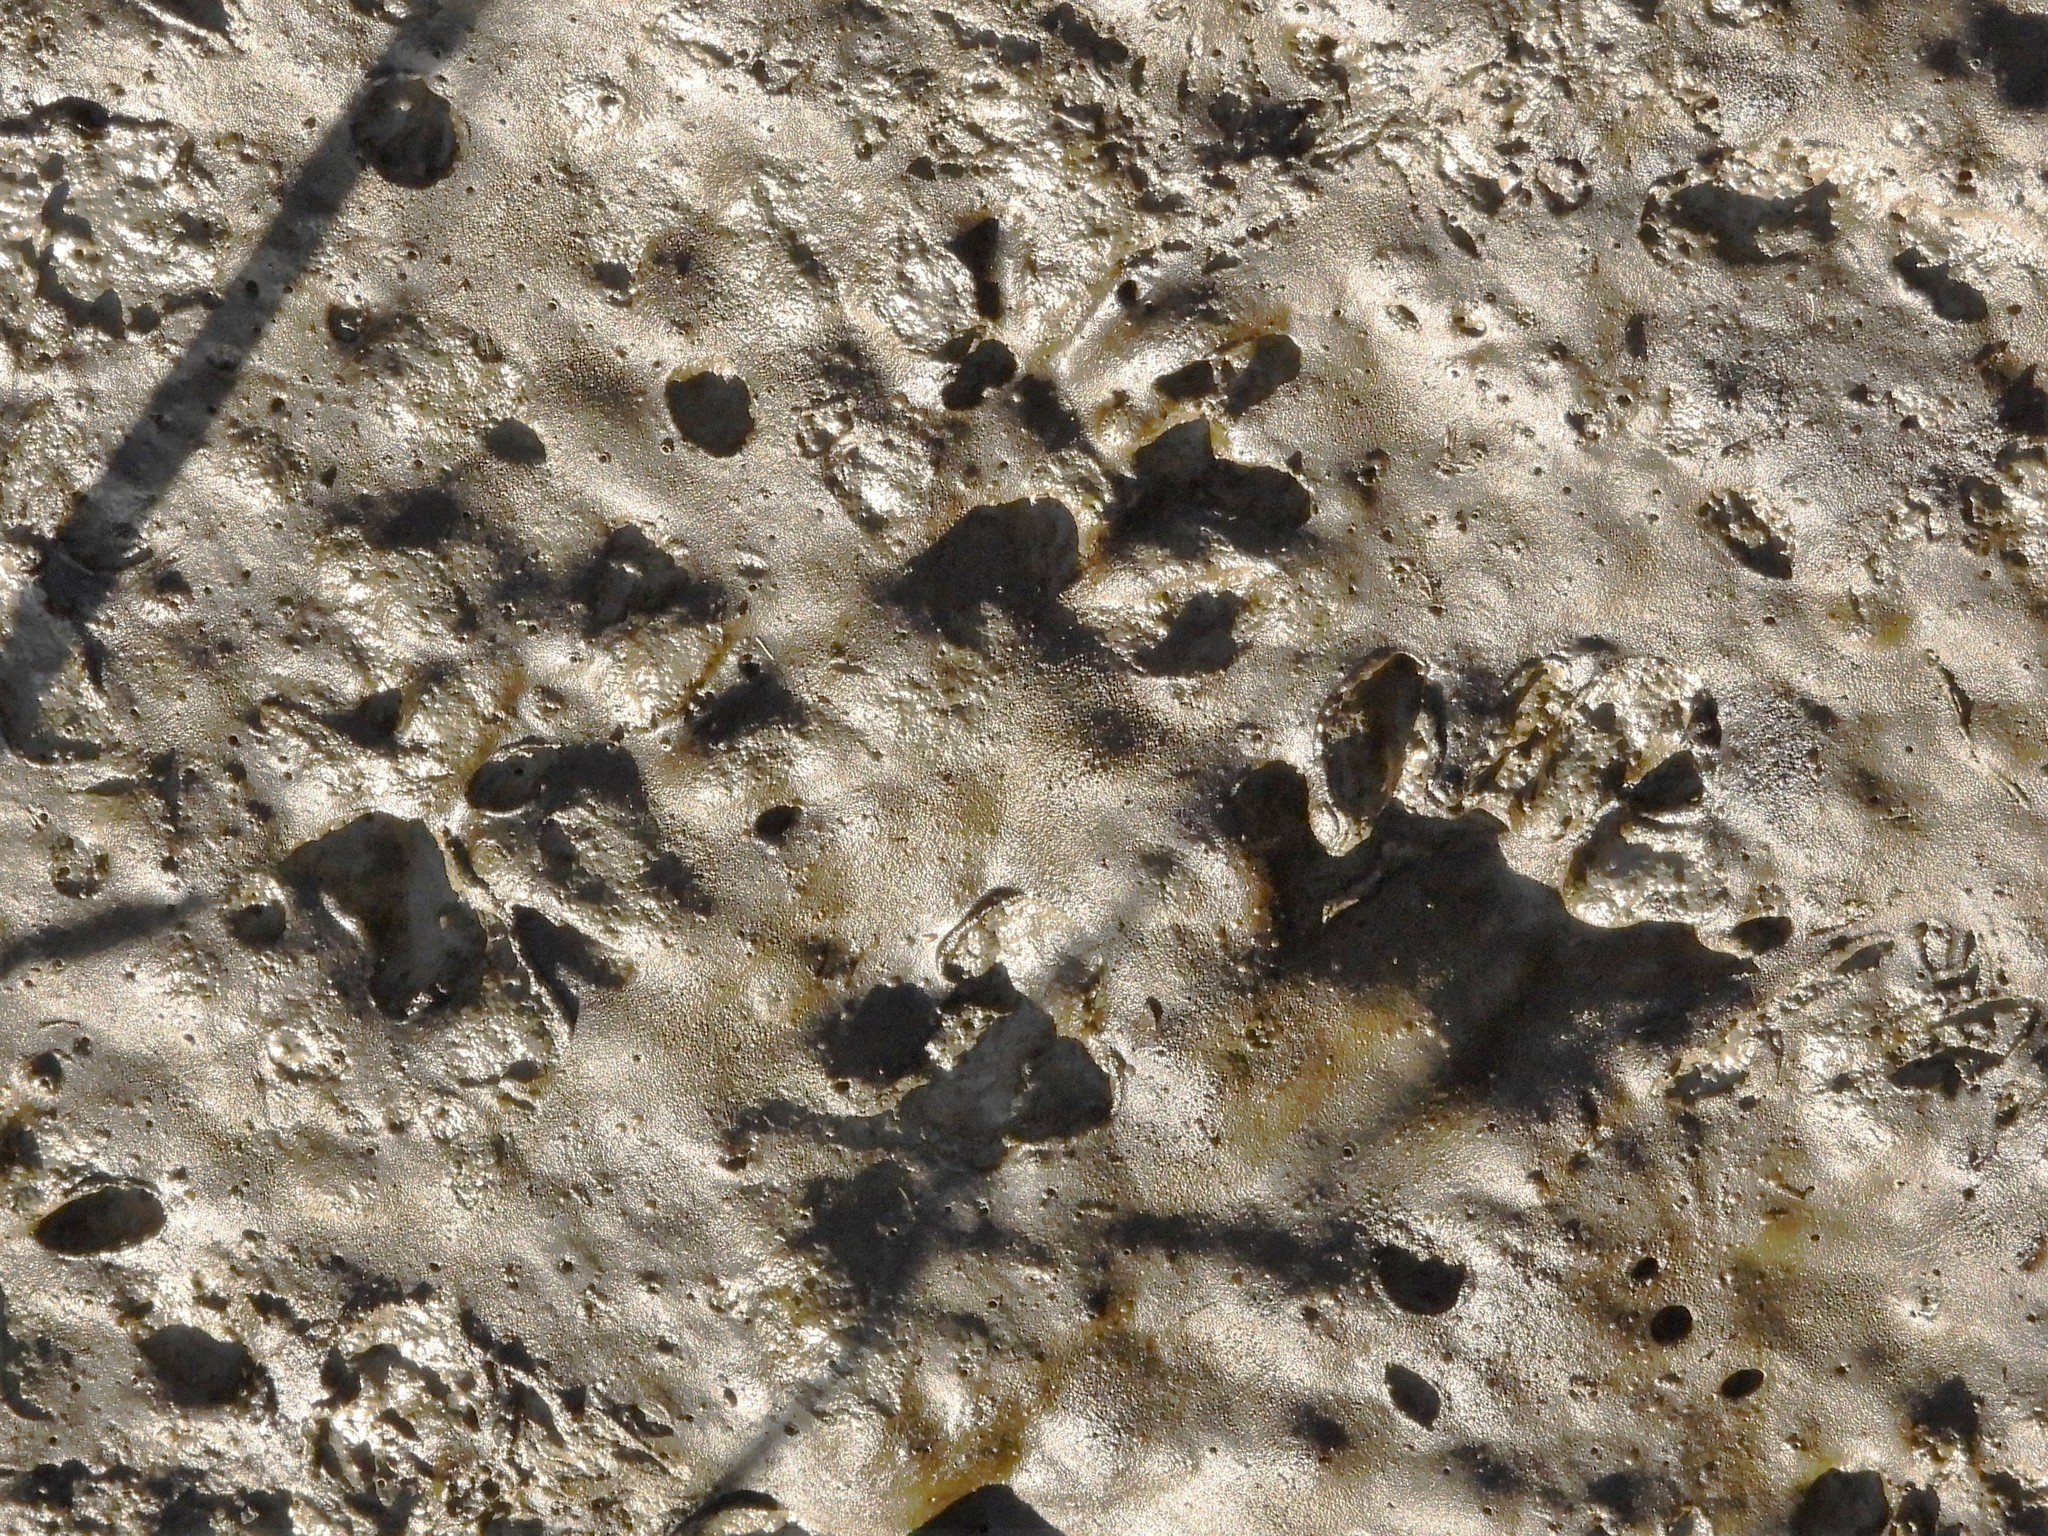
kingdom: Animalia
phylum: Chordata
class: Mammalia
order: Carnivora
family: Procyonidae
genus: Procyon
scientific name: Procyon lotor
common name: Raccoon
